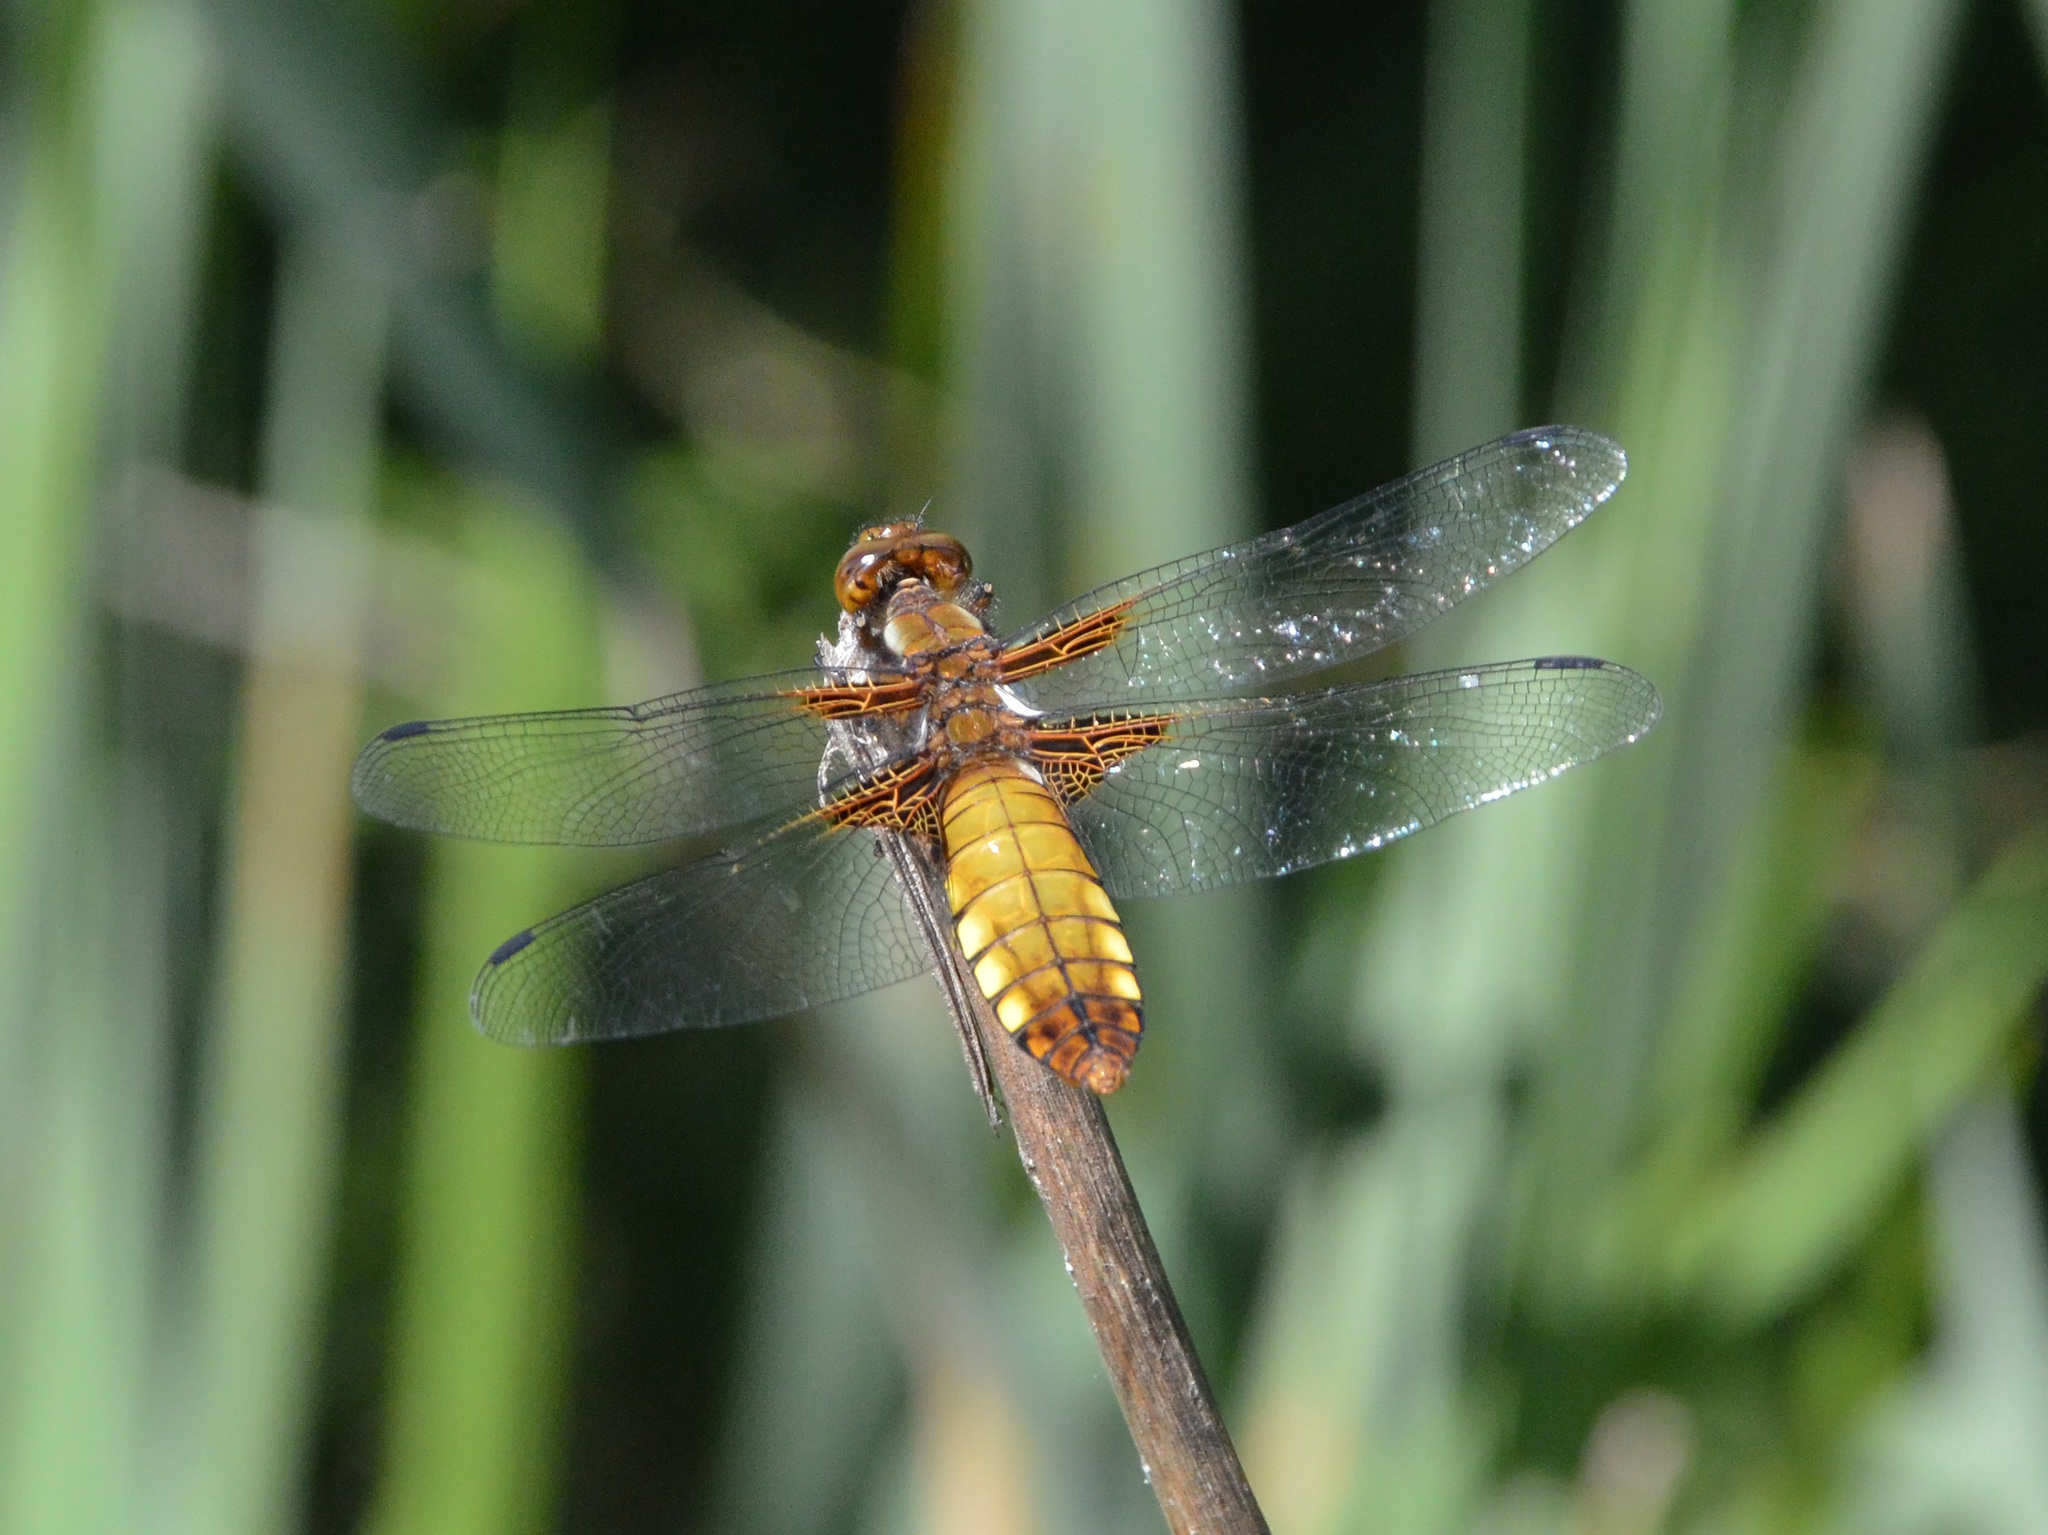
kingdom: Animalia
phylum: Arthropoda
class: Insecta
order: Odonata
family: Libellulidae
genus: Libellula
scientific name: Libellula depressa
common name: Broad-bodied chaser
